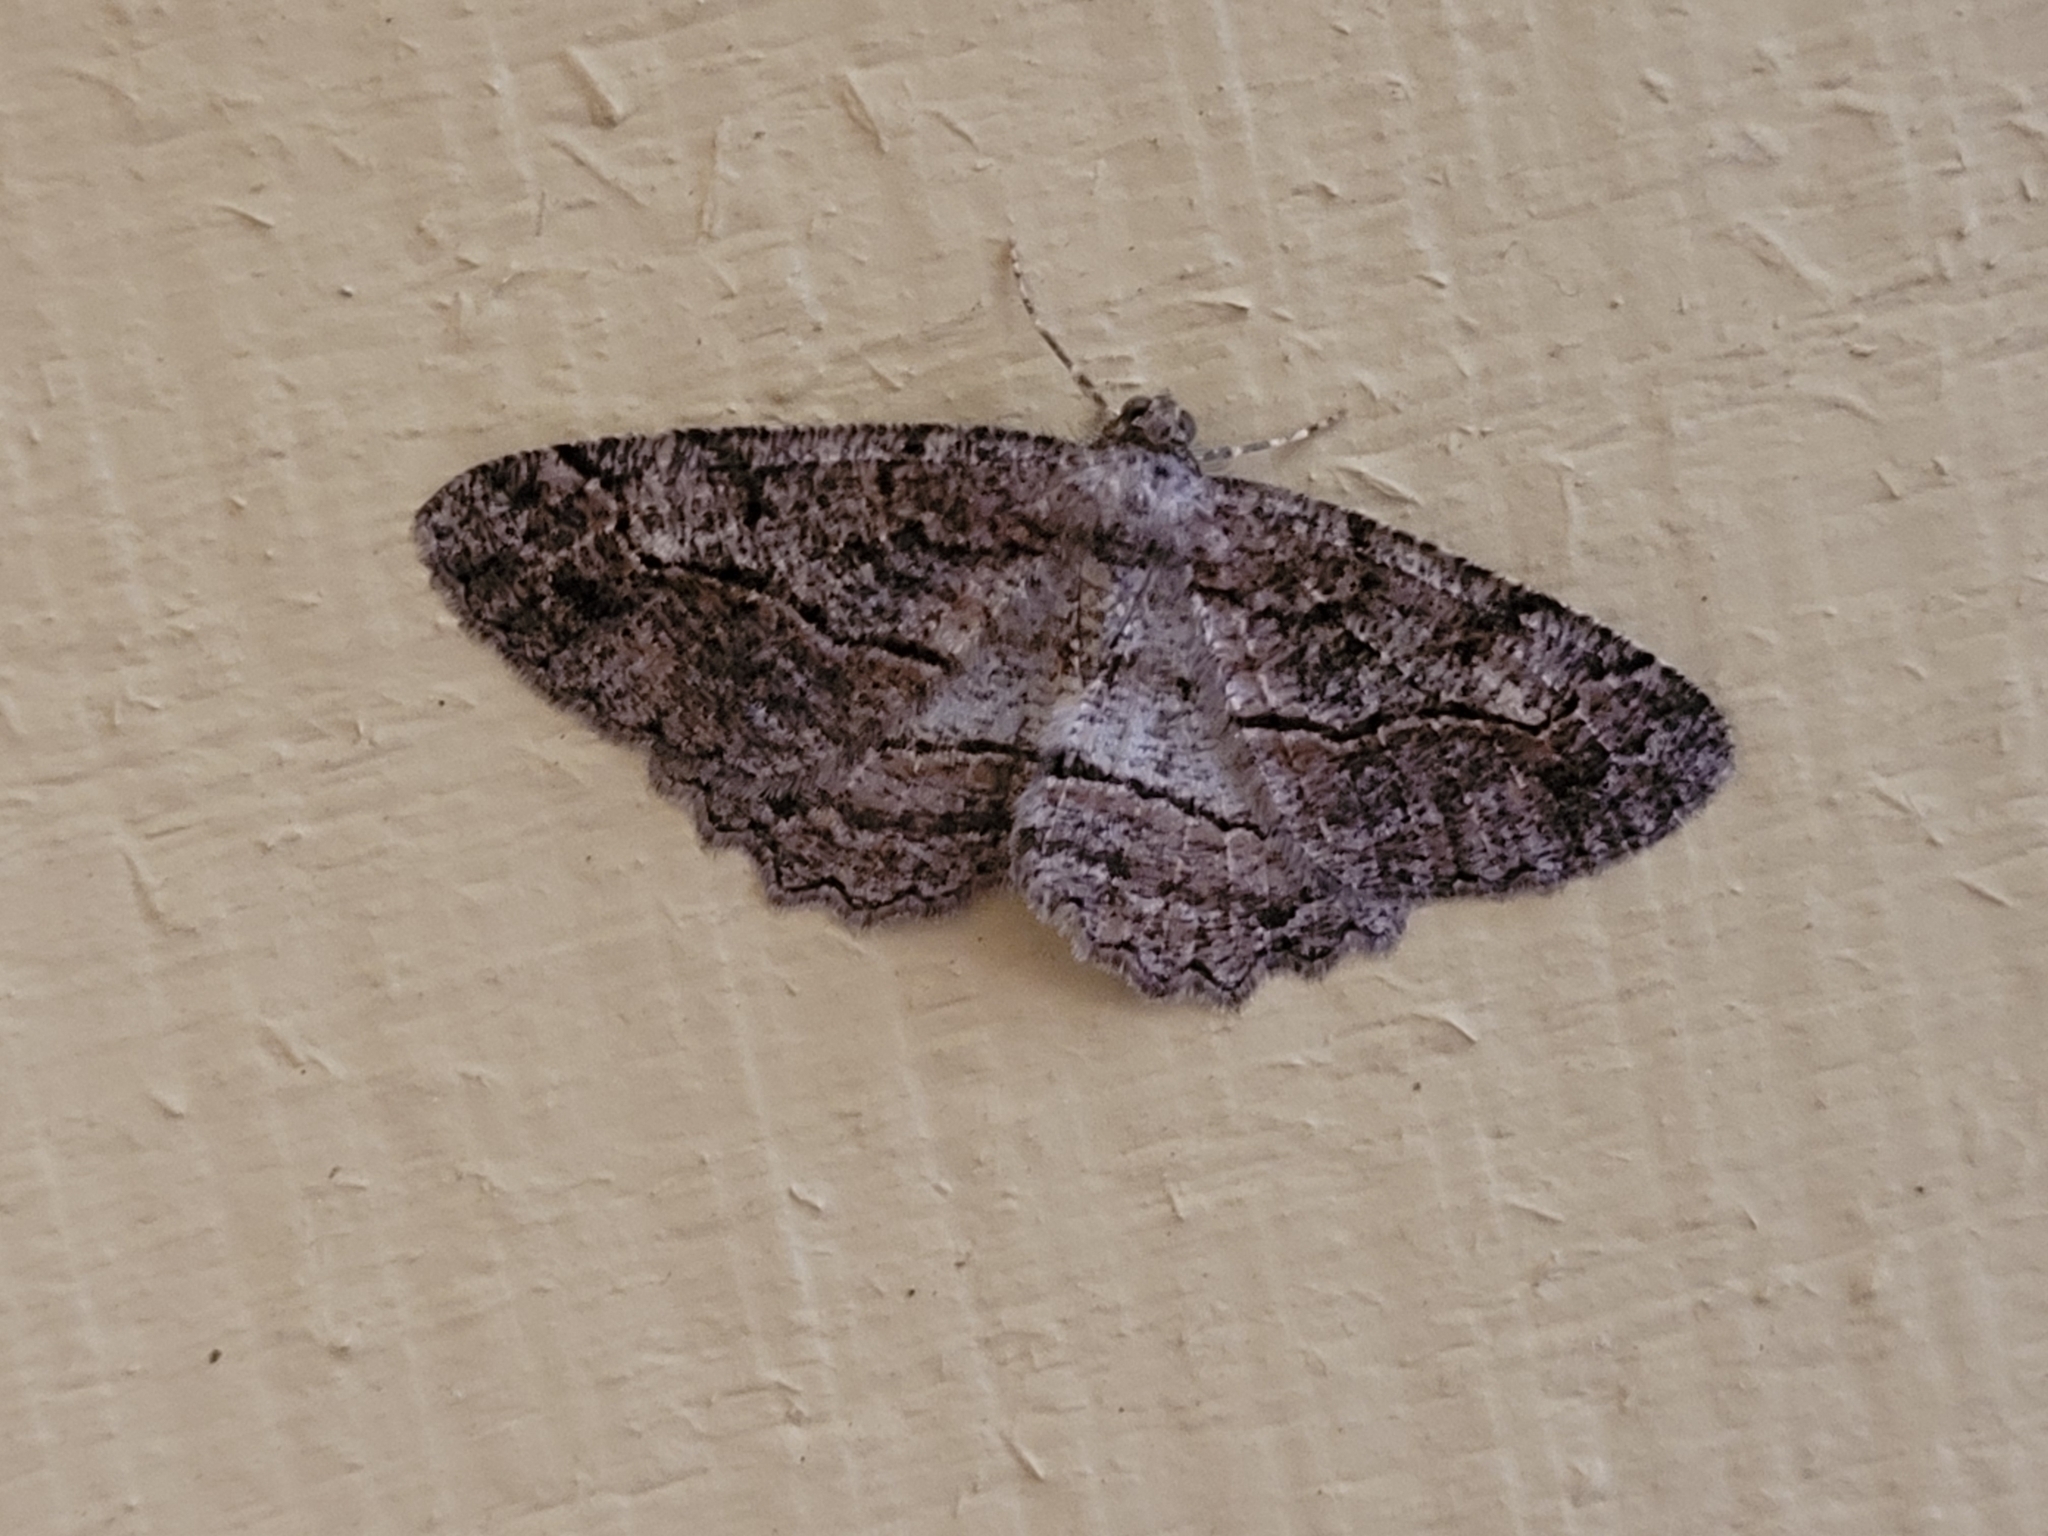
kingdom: Animalia
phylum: Arthropoda
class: Insecta
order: Lepidoptera
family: Geometridae
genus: Neoalcis
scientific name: Neoalcis californiaria
